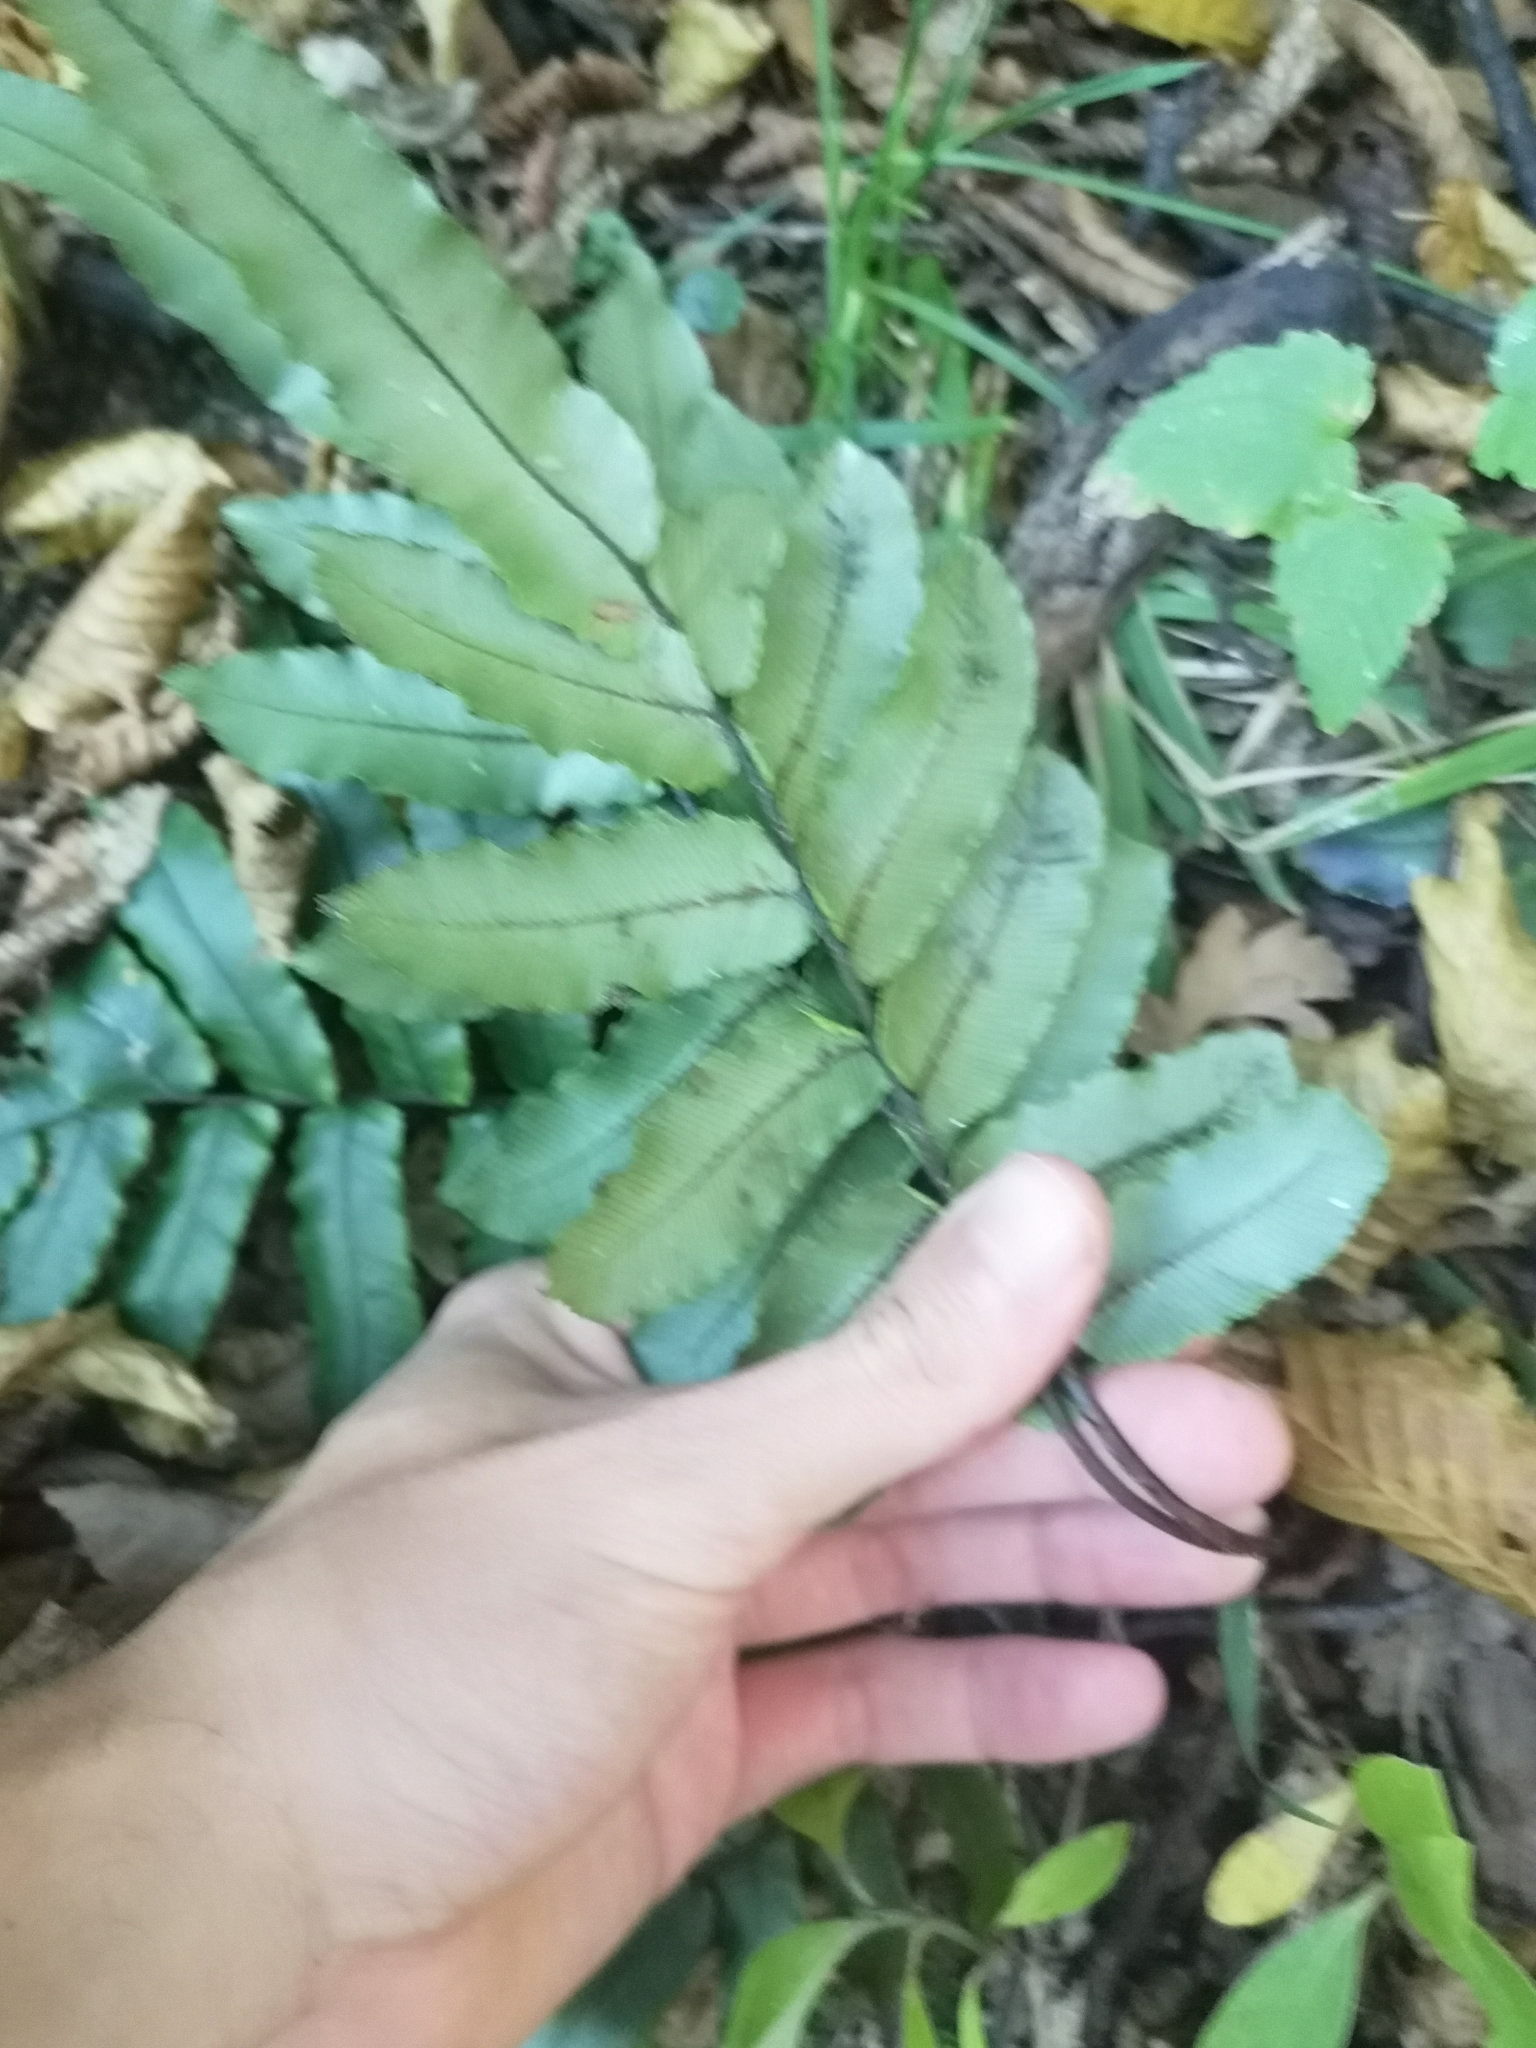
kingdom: Plantae
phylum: Tracheophyta
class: Polypodiopsida
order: Polypodiales
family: Blechnaceae
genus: Parablechnum
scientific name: Parablechnum procerum
